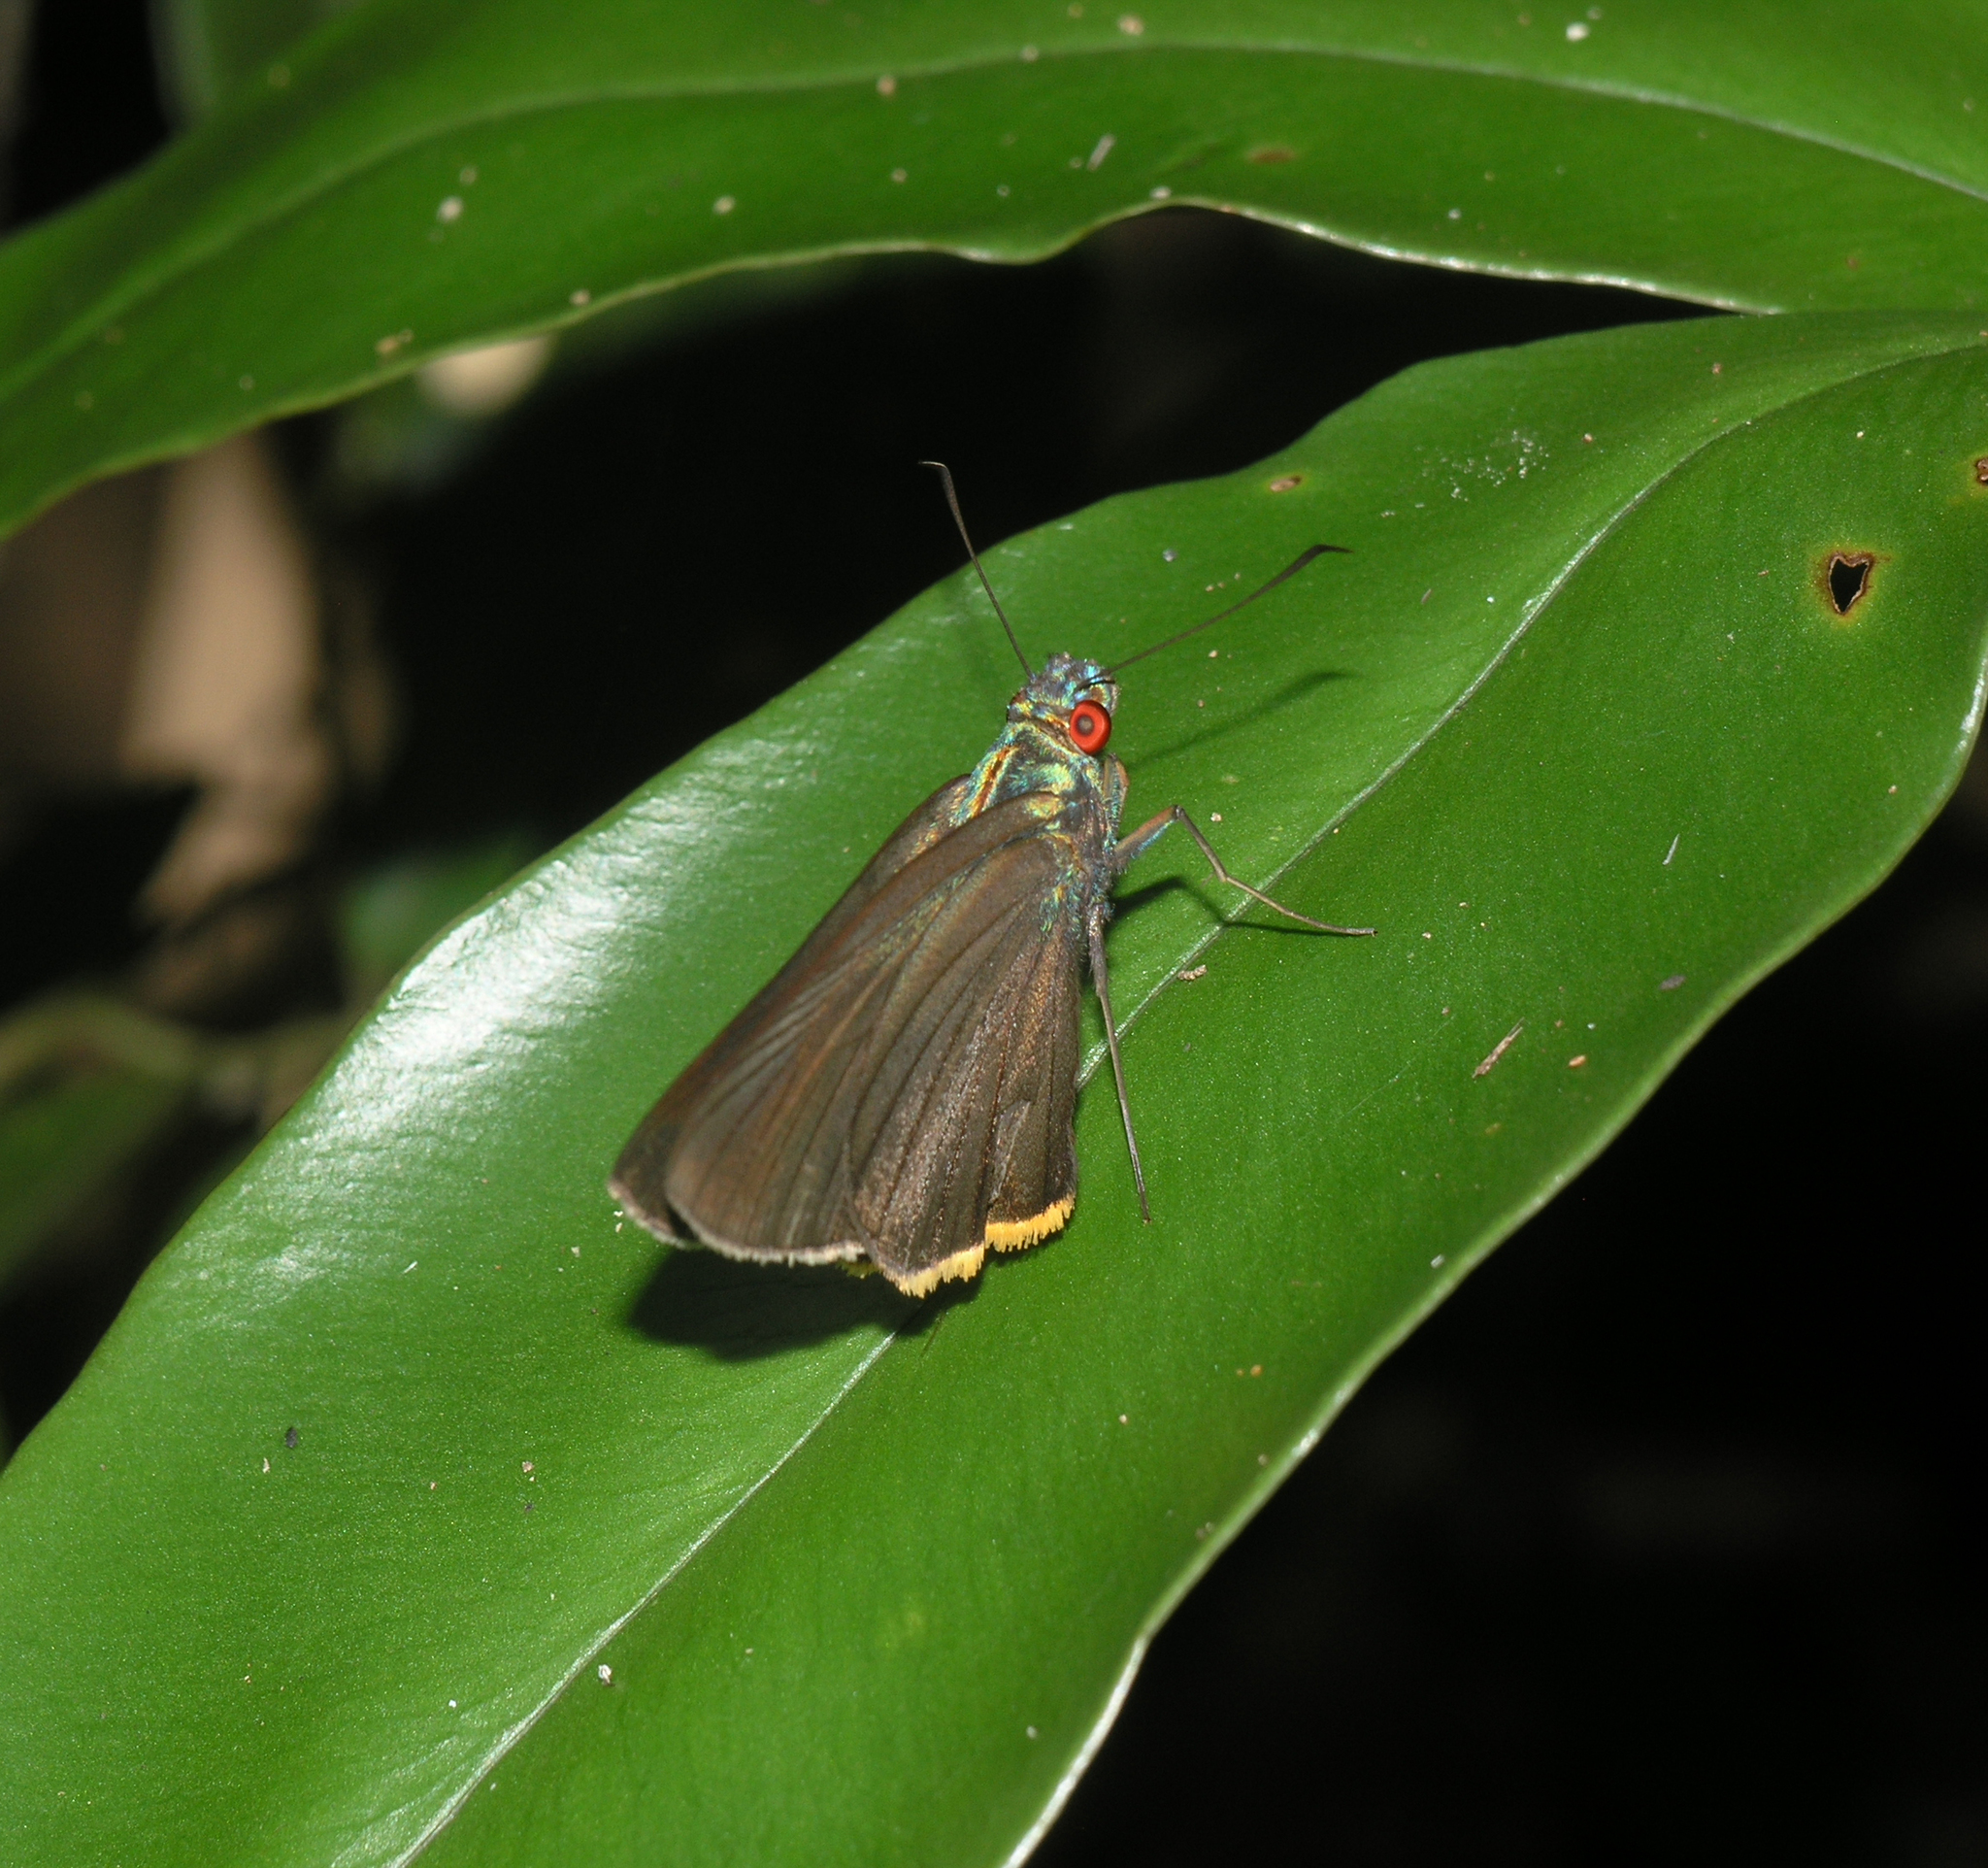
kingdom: Animalia
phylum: Arthropoda
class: Insecta
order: Lepidoptera
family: Hesperiidae
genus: Matapa
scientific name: Matapa sasivarna
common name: Black-veined redeye
